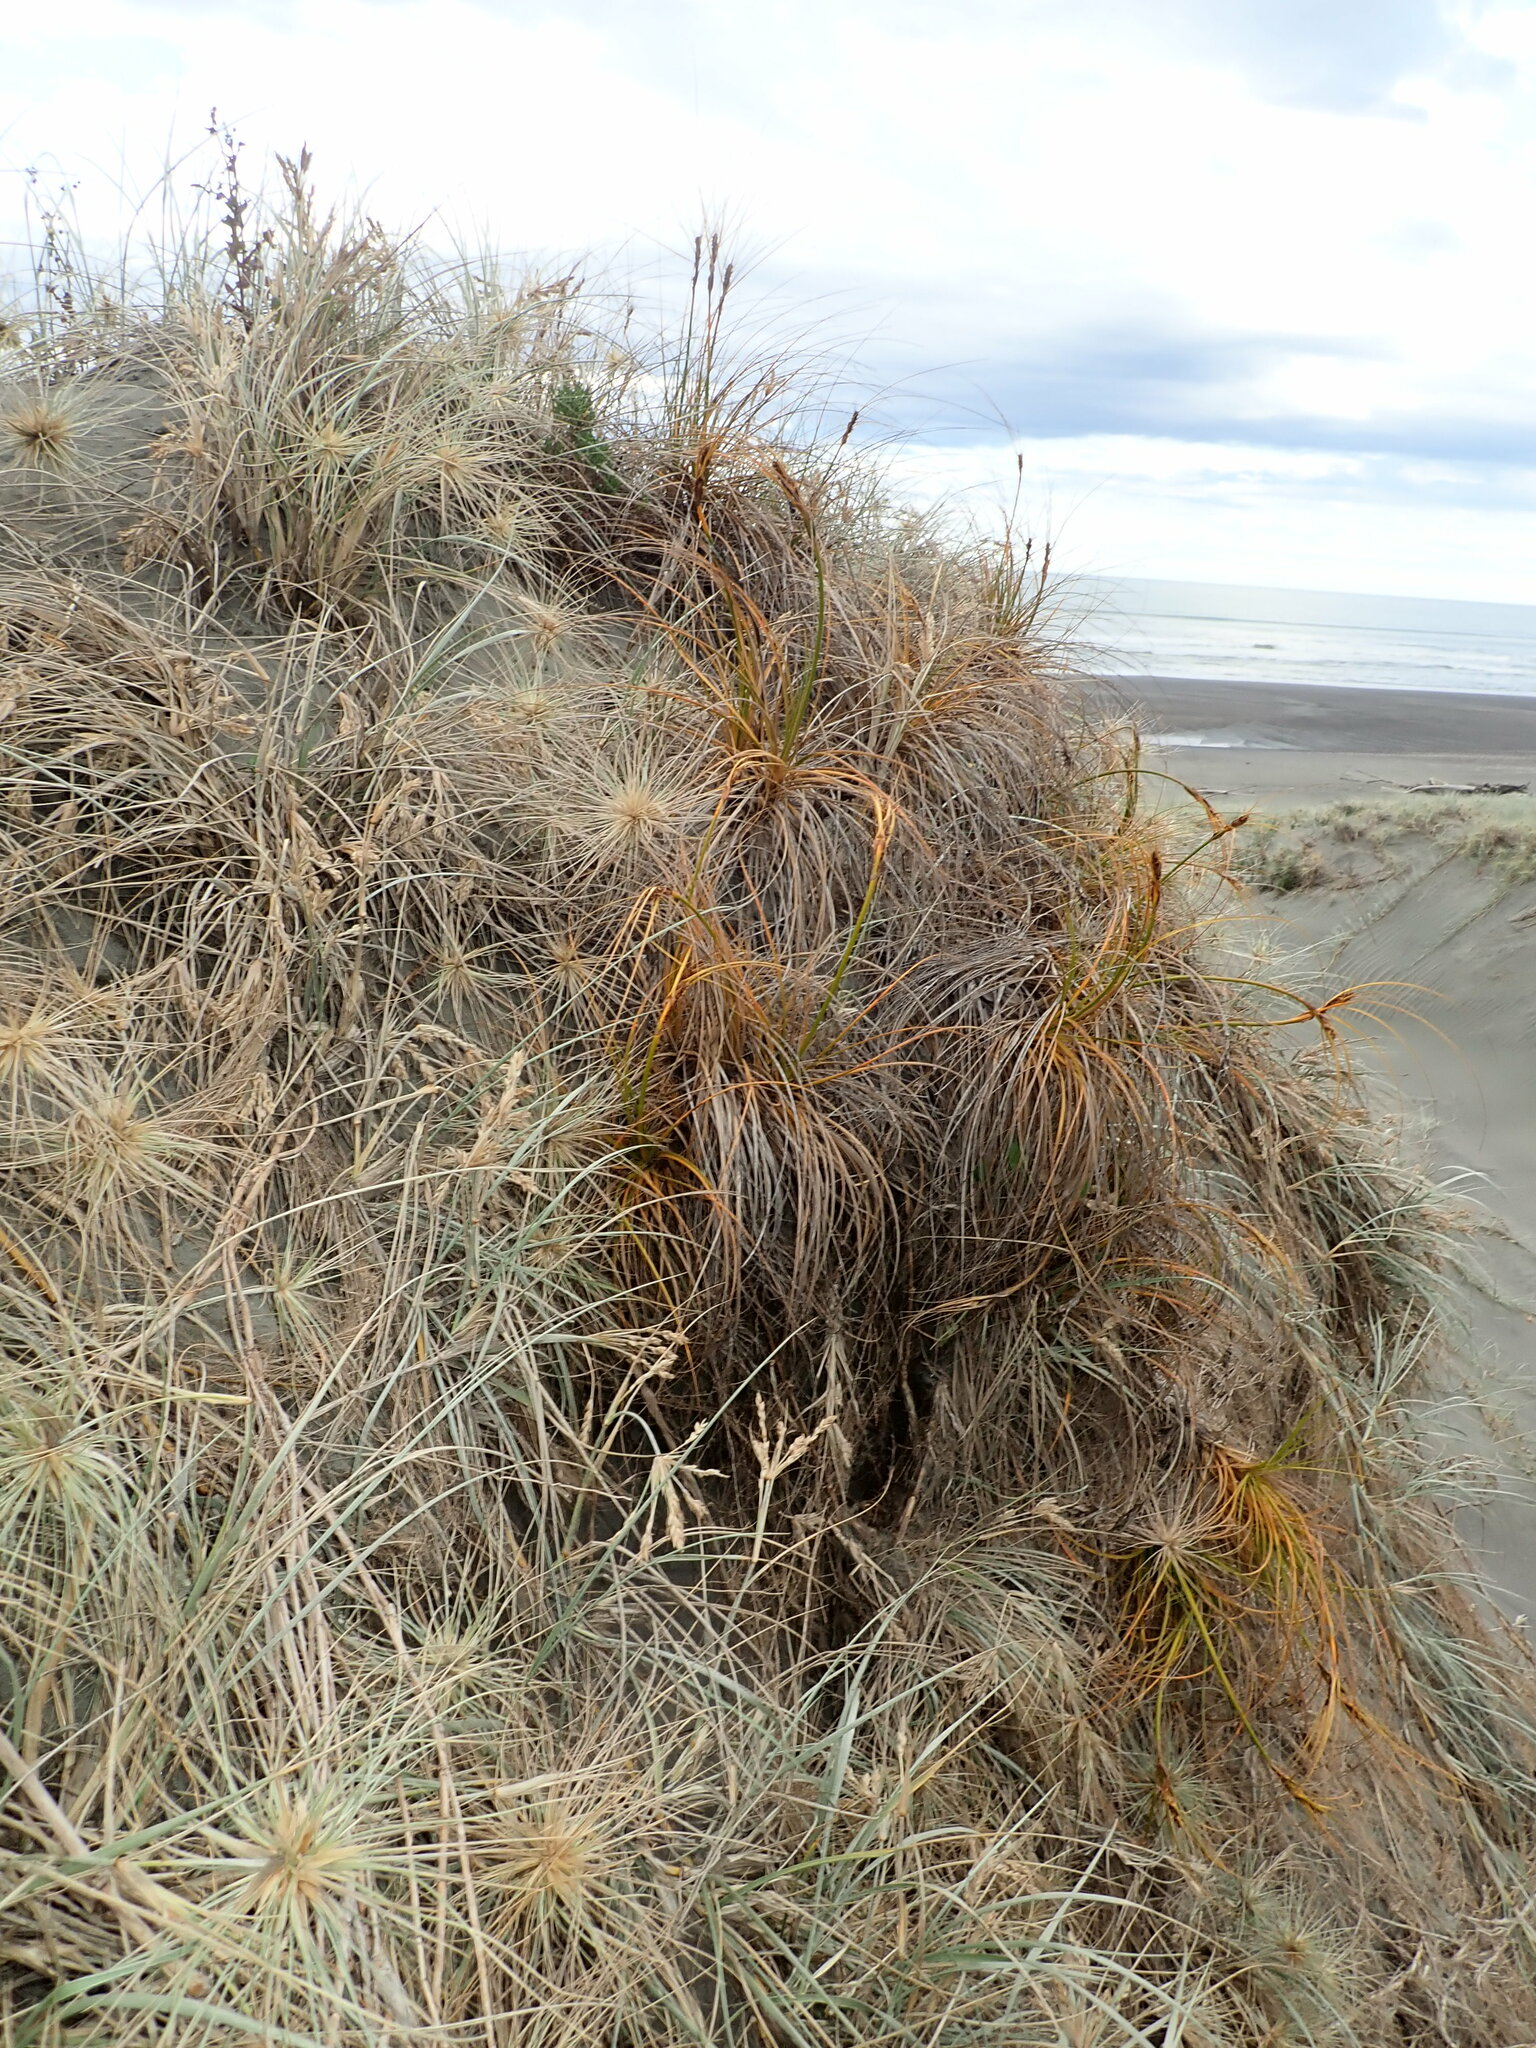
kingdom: Plantae
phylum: Tracheophyta
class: Liliopsida
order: Poales
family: Cyperaceae
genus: Ficinia
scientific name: Ficinia spiralis
